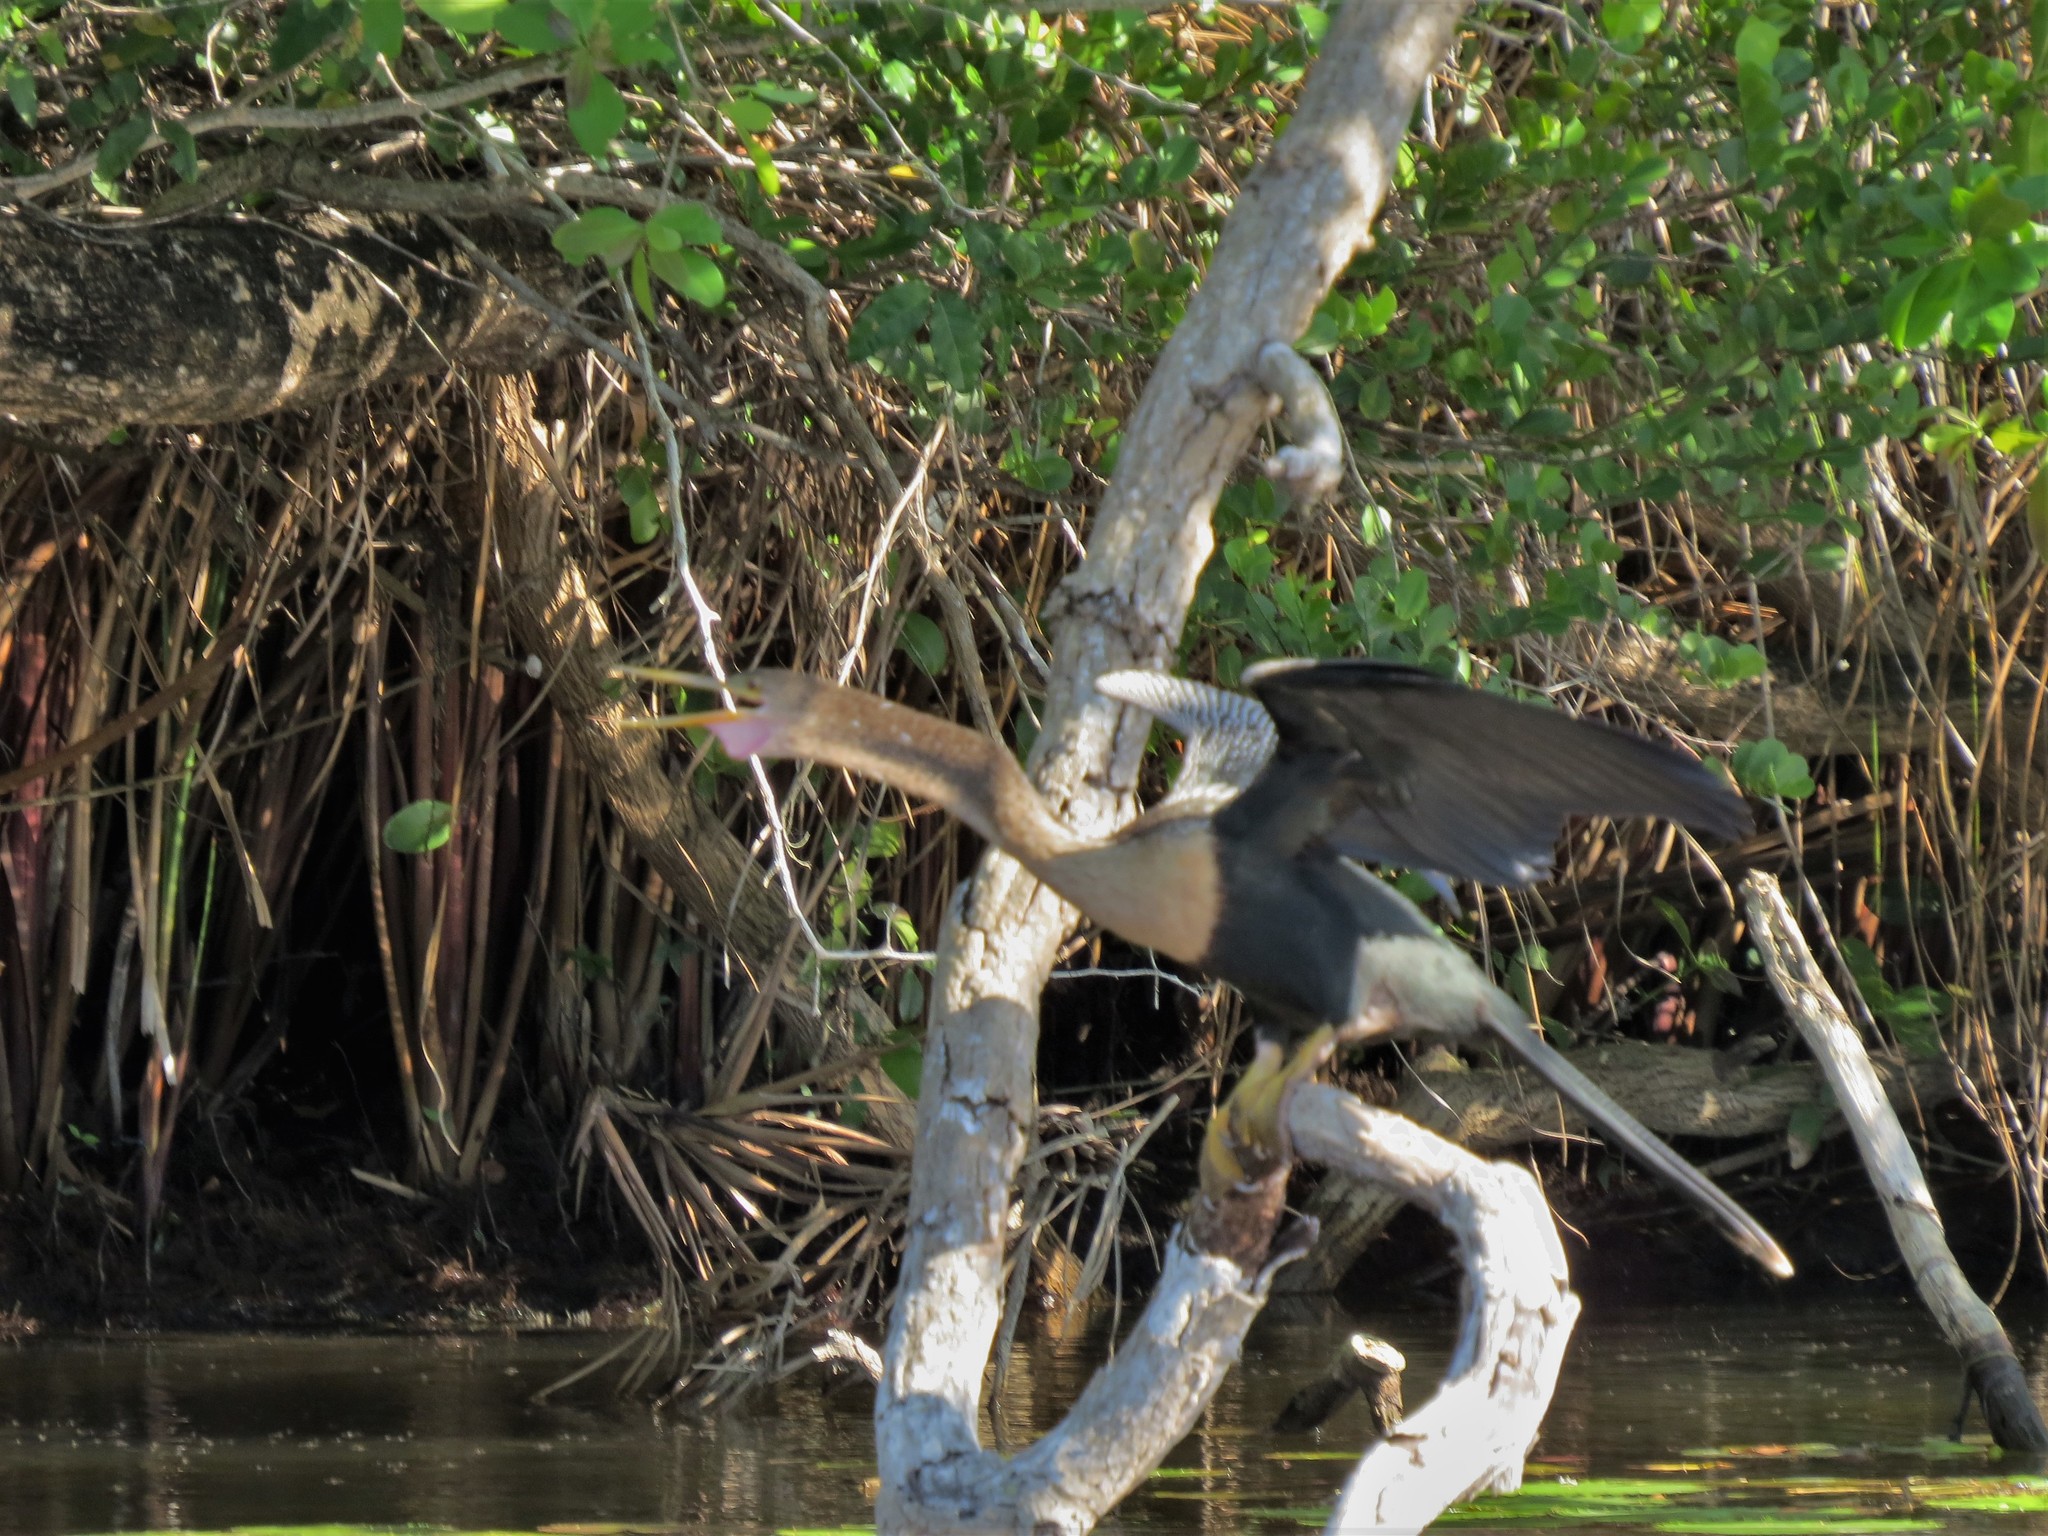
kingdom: Animalia
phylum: Chordata
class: Aves
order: Suliformes
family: Anhingidae
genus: Anhinga
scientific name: Anhinga anhinga
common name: Anhinga
